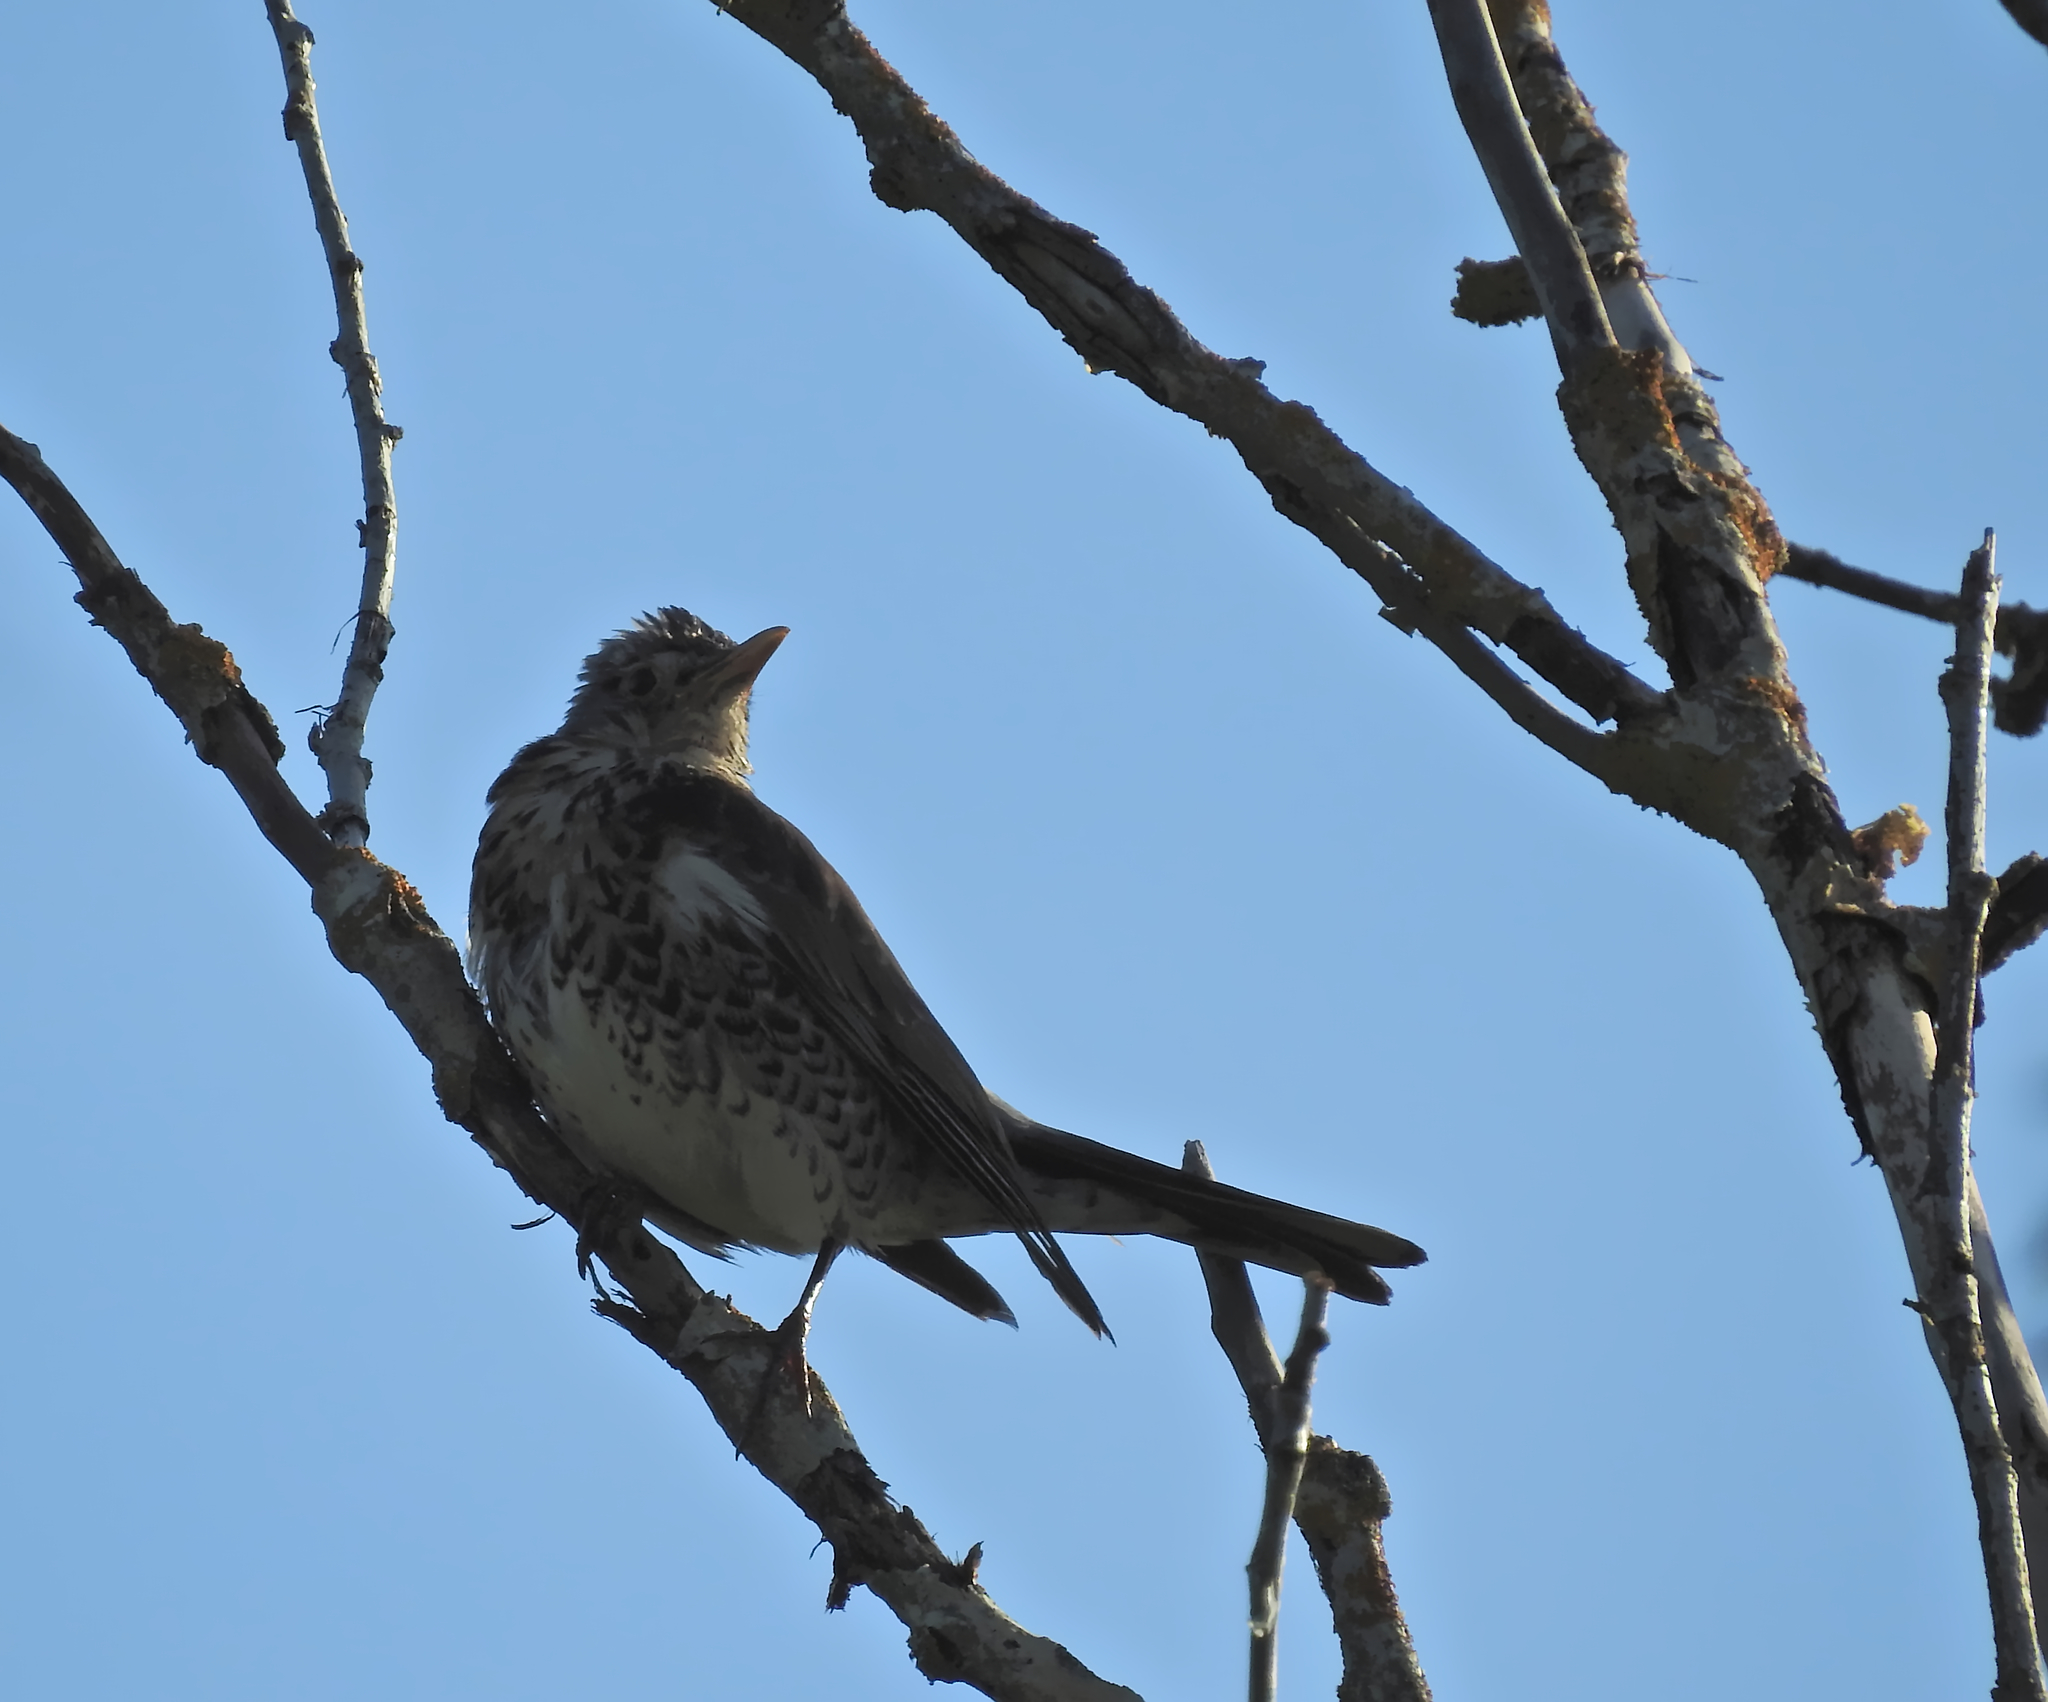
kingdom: Animalia
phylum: Chordata
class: Aves
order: Passeriformes
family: Turdidae
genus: Turdus
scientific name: Turdus pilaris
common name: Fieldfare
